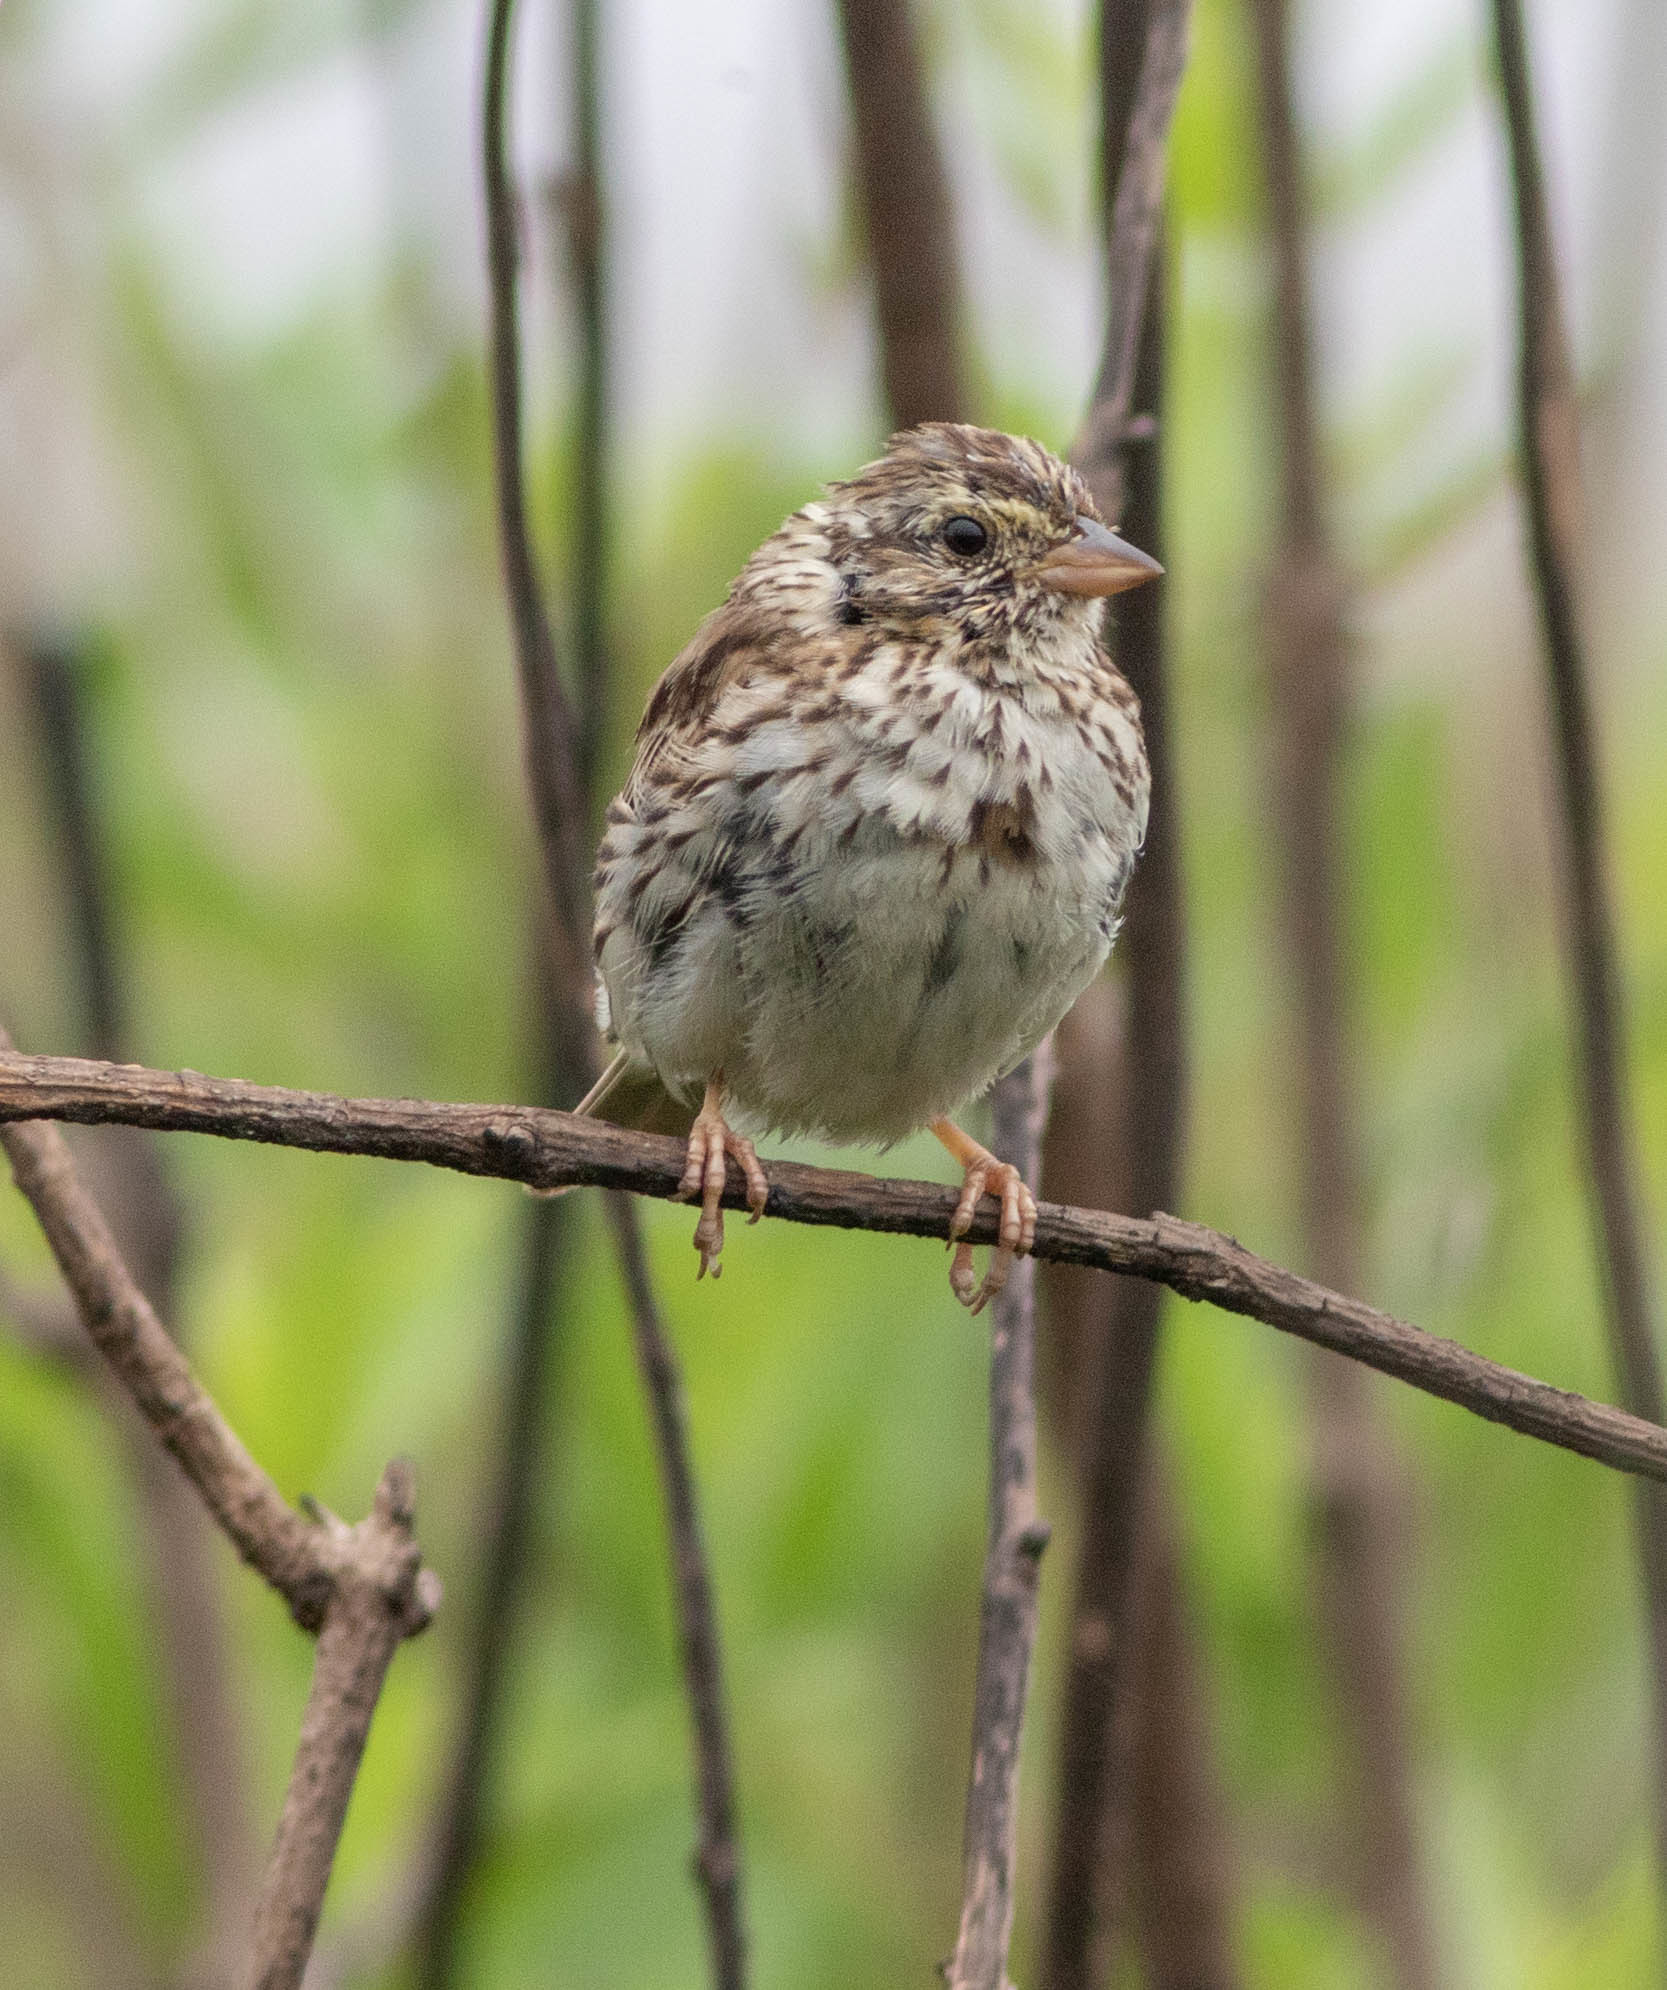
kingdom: Animalia
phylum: Chordata
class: Aves
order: Passeriformes
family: Passerellidae
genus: Passerculus
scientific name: Passerculus sandwichensis
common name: Savannah sparrow
